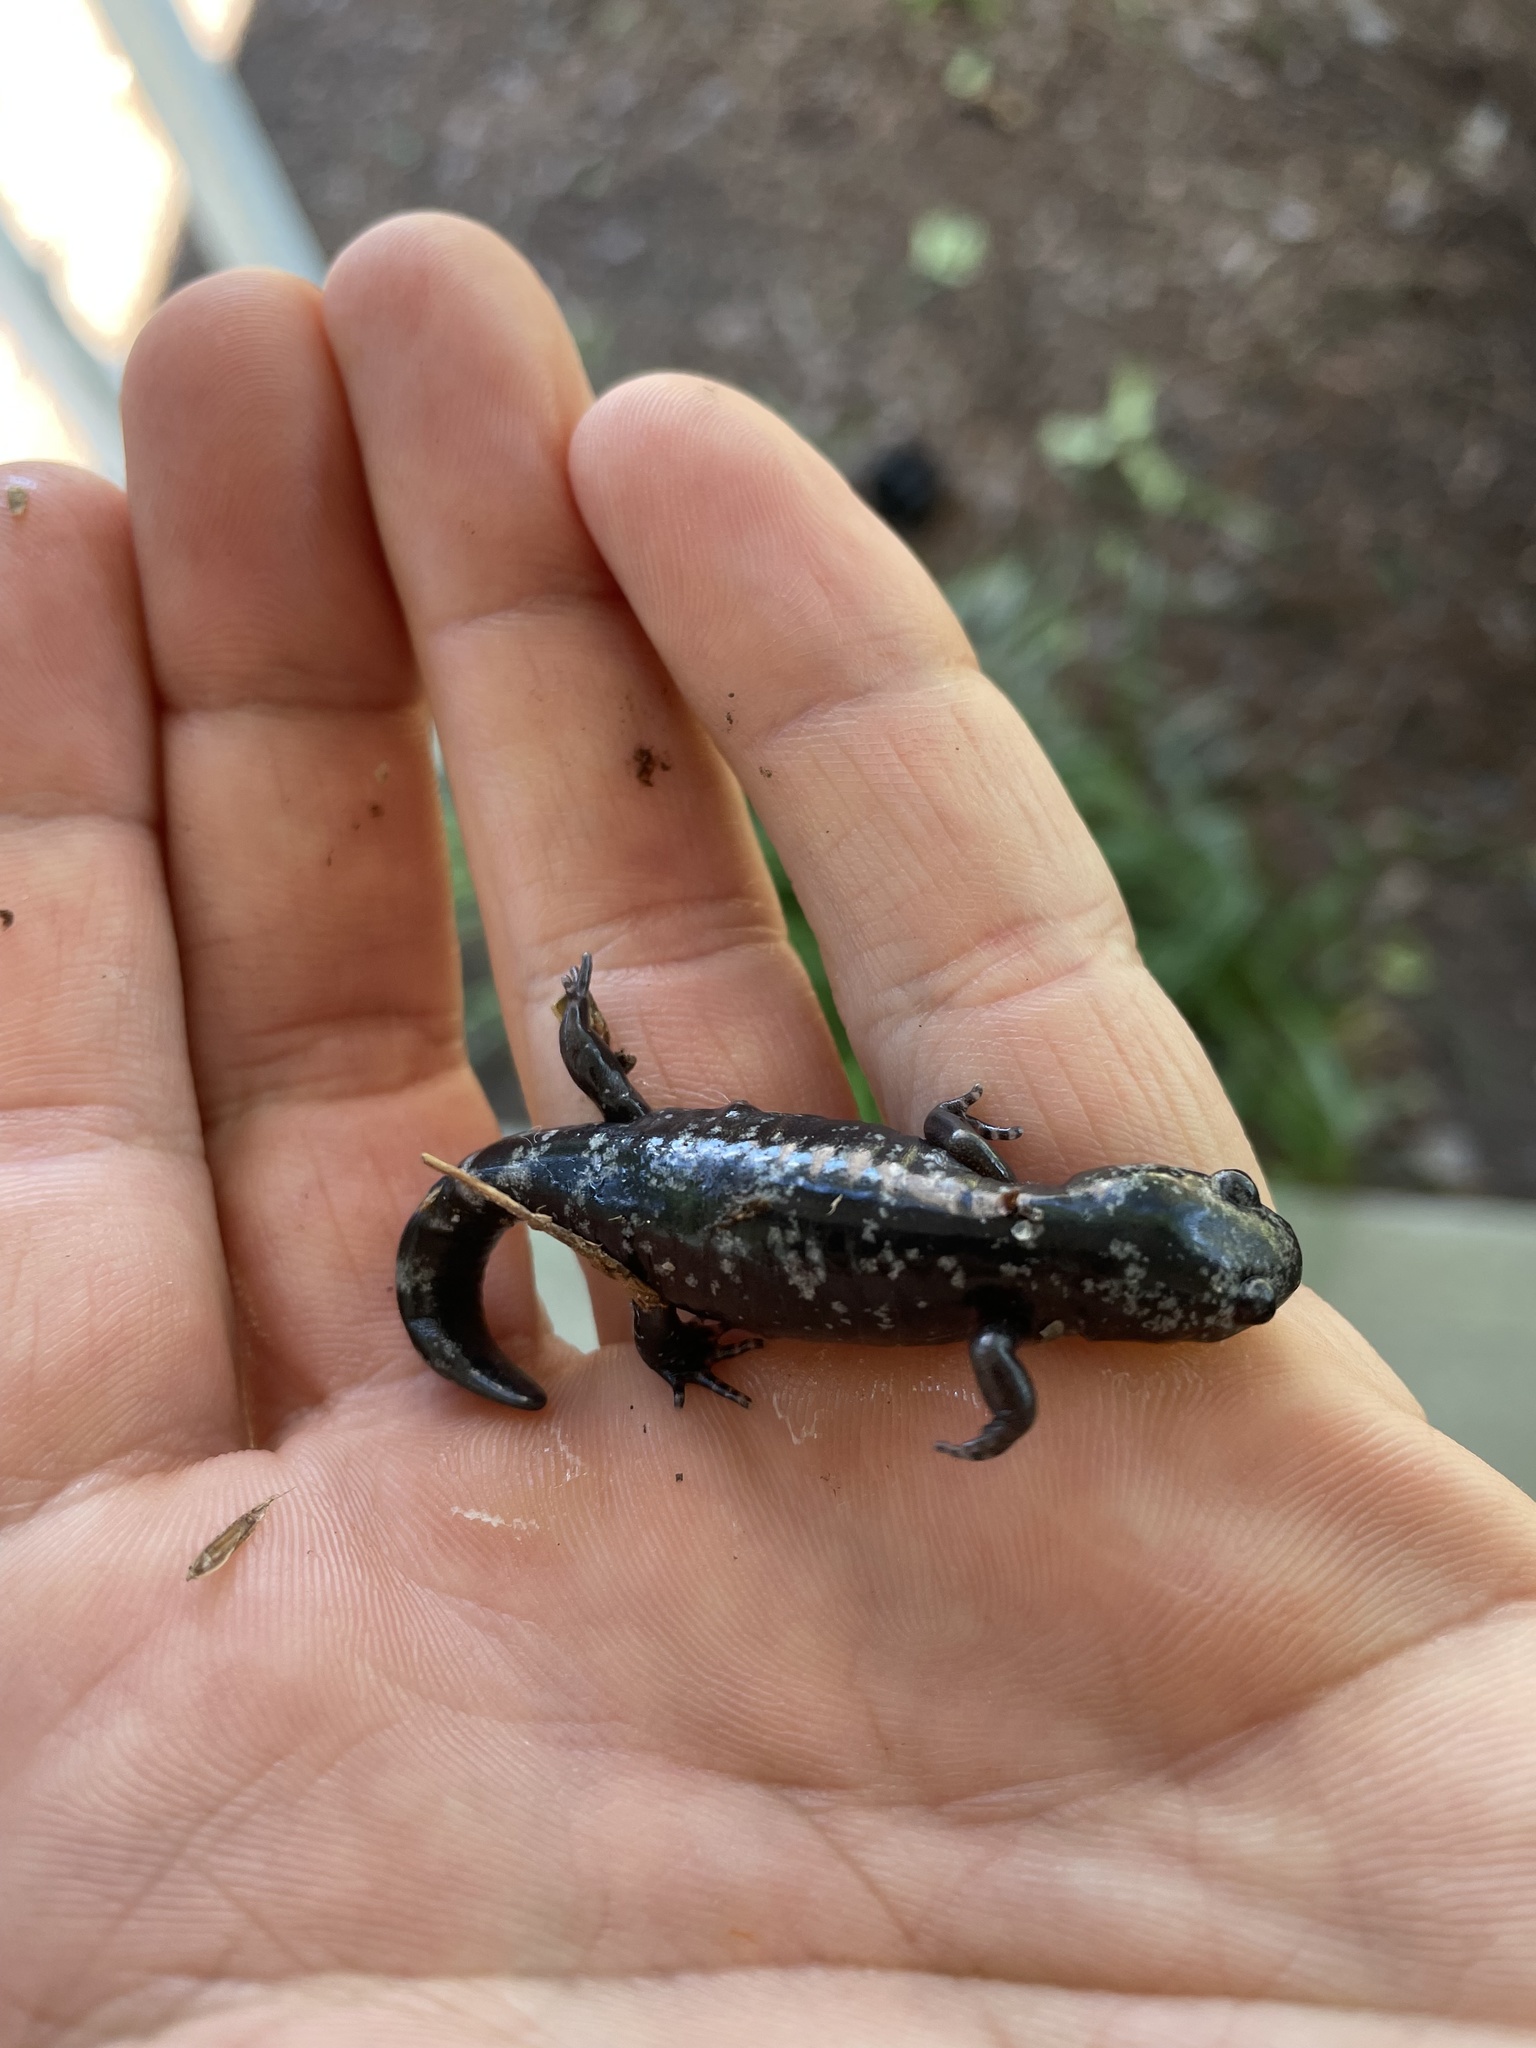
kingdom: Animalia
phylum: Chordata
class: Amphibia
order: Caudata
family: Ambystomatidae
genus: Ambystoma
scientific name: Ambystoma opacum
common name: Marbled salamander
